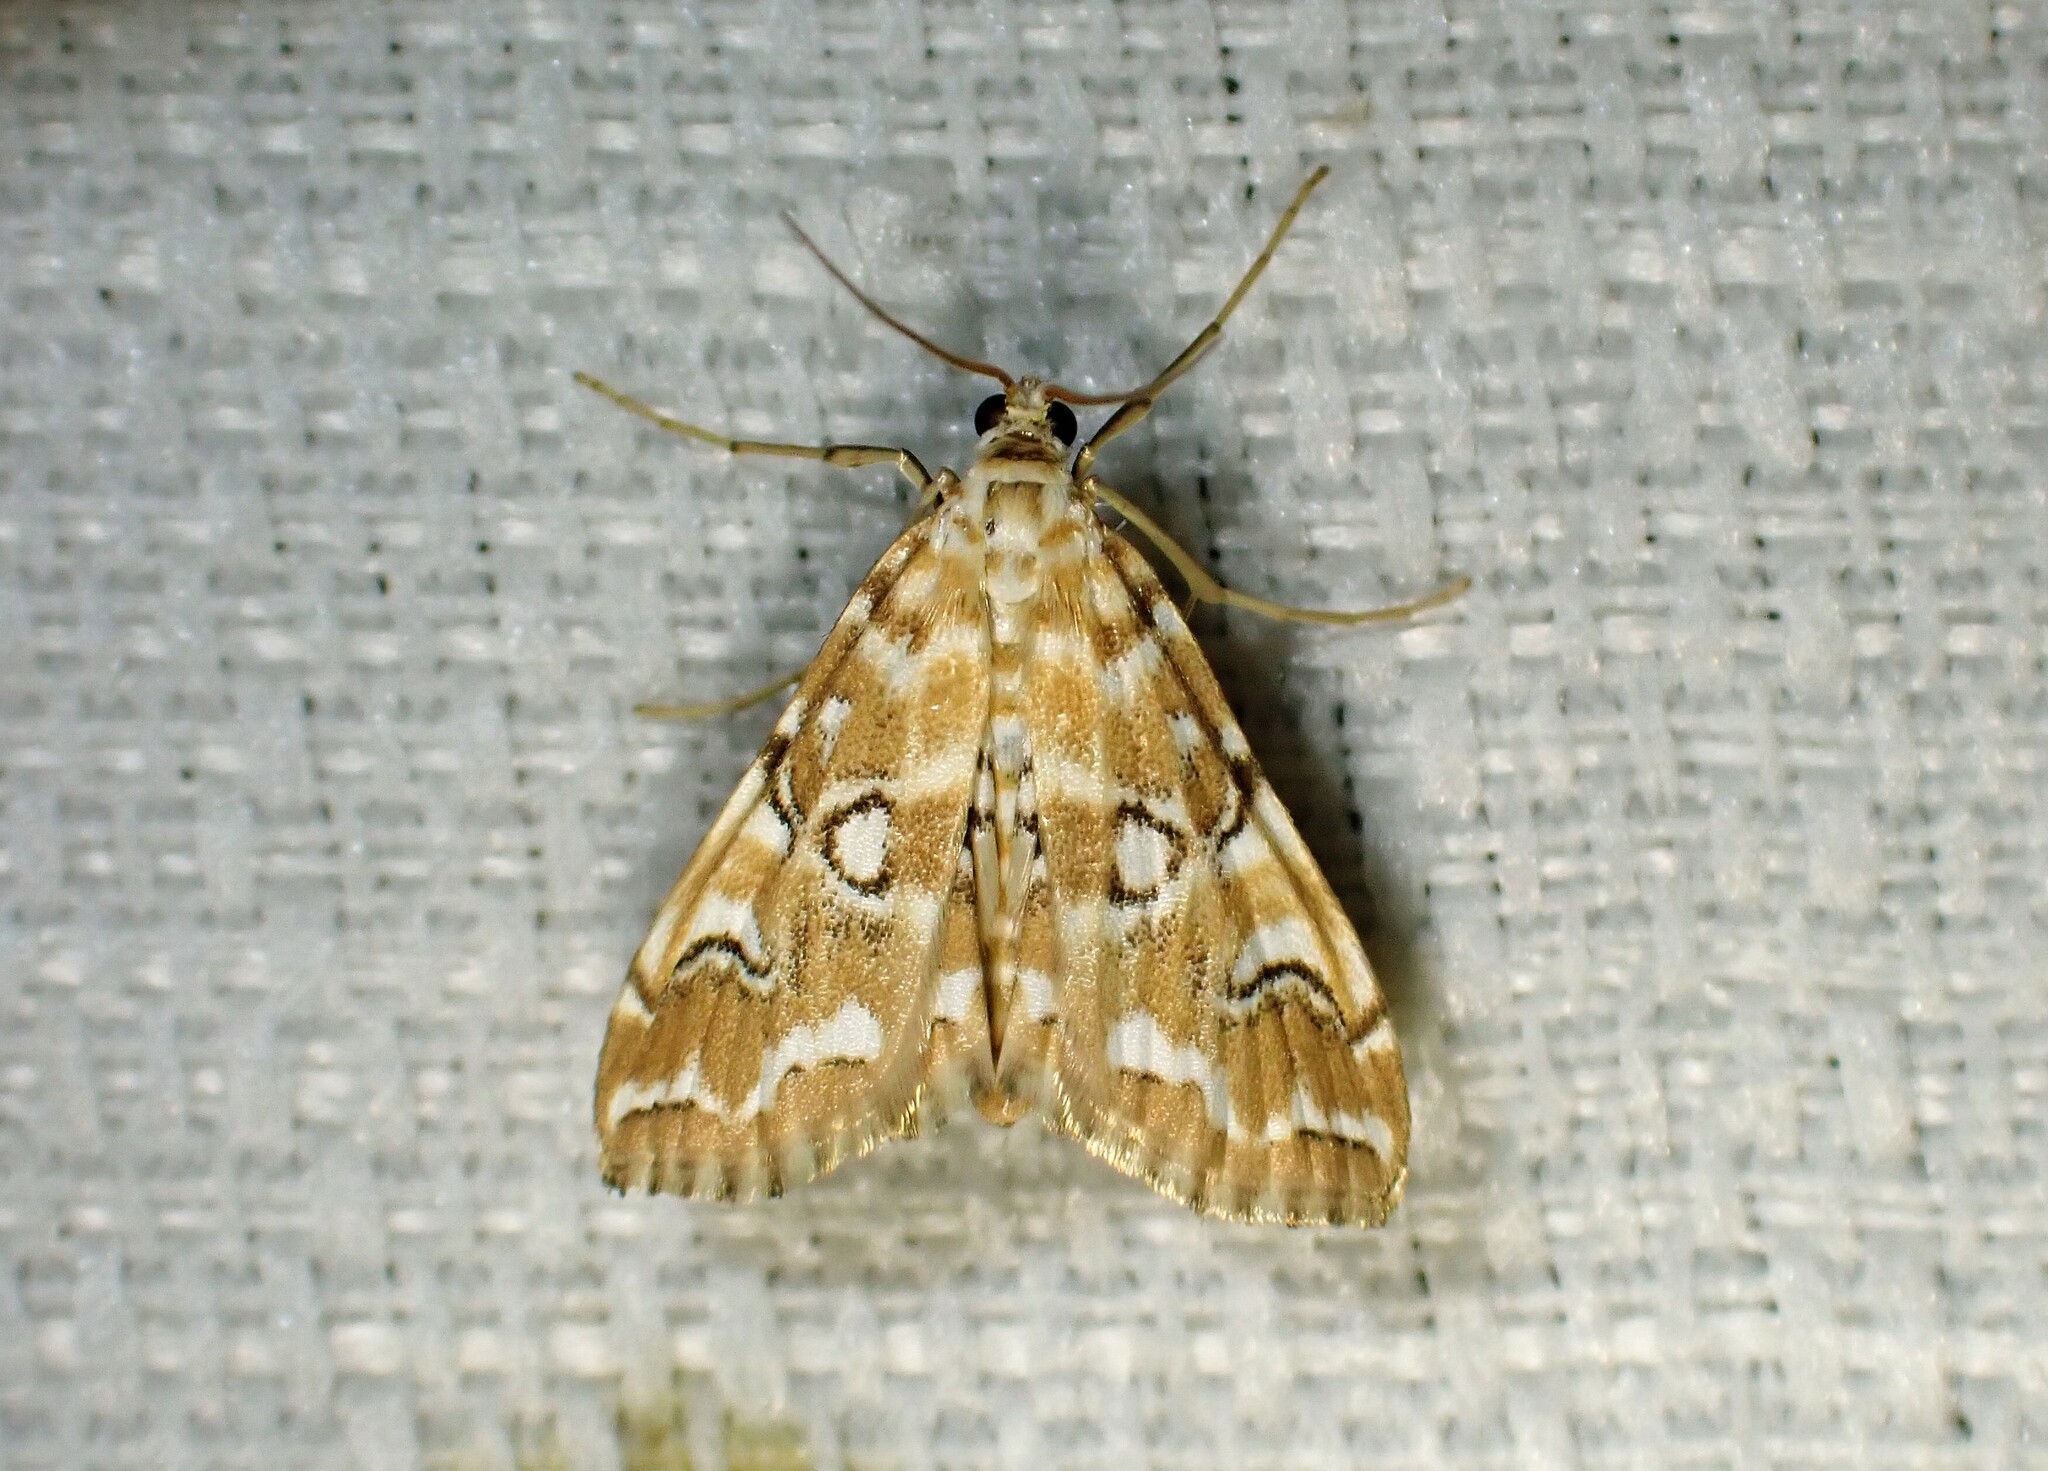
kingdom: Animalia
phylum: Arthropoda
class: Insecta
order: Lepidoptera
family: Crambidae
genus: Elophila
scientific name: Elophila icciusalis
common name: Pondside pyralid moth
